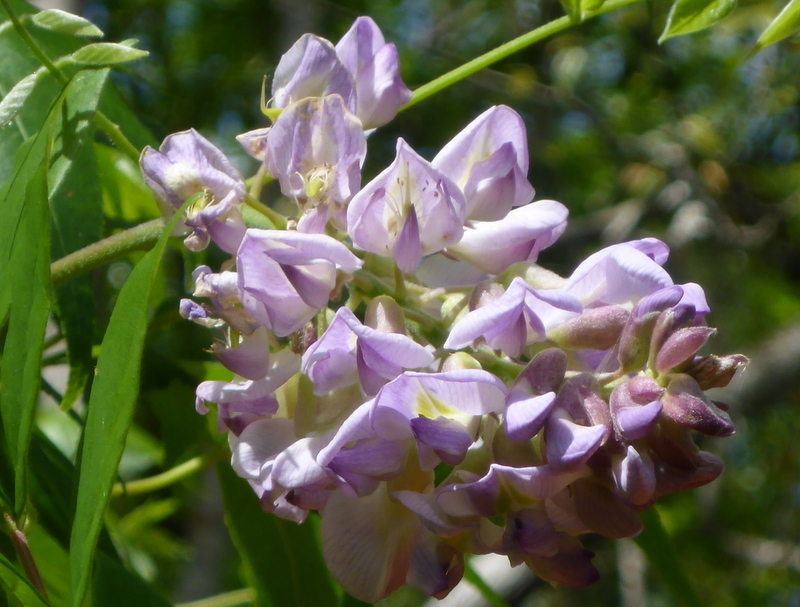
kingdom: Plantae
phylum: Tracheophyta
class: Magnoliopsida
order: Fabales
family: Fabaceae
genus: Wisteria
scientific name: Wisteria frutescens
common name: American wisteria
